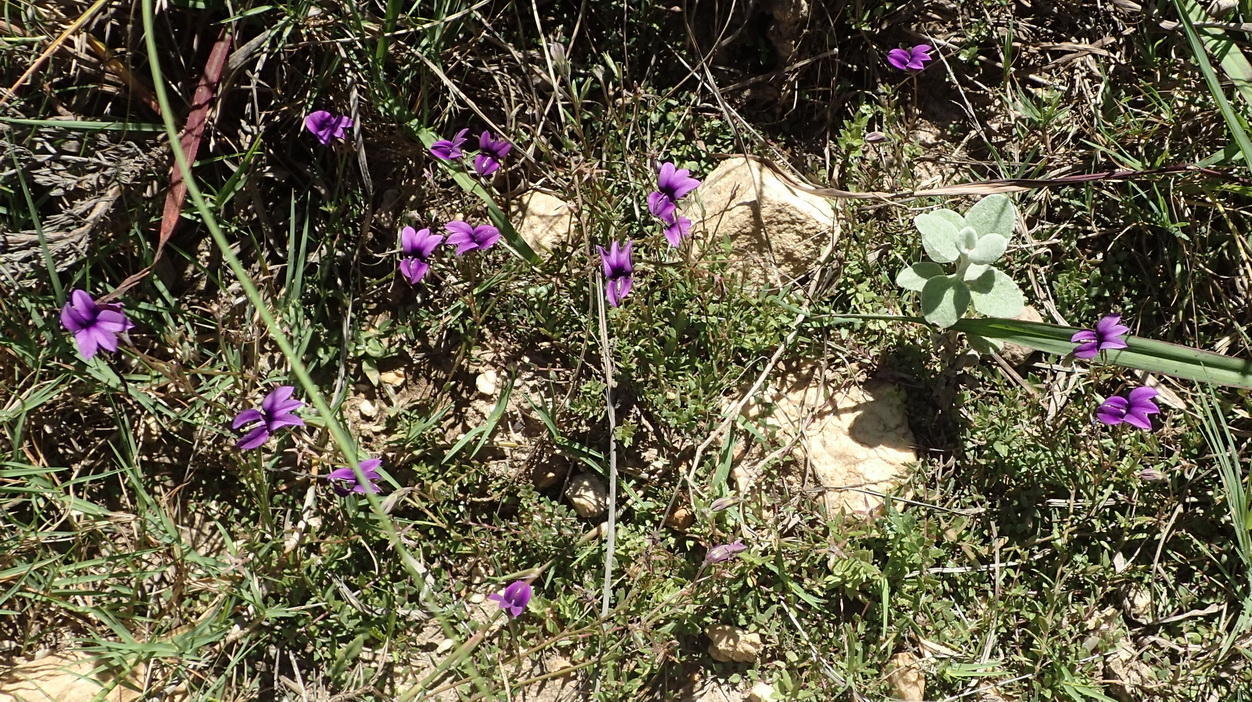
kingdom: Plantae
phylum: Tracheophyta
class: Magnoliopsida
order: Asterales
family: Campanulaceae
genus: Monopsis
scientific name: Monopsis unidentata
